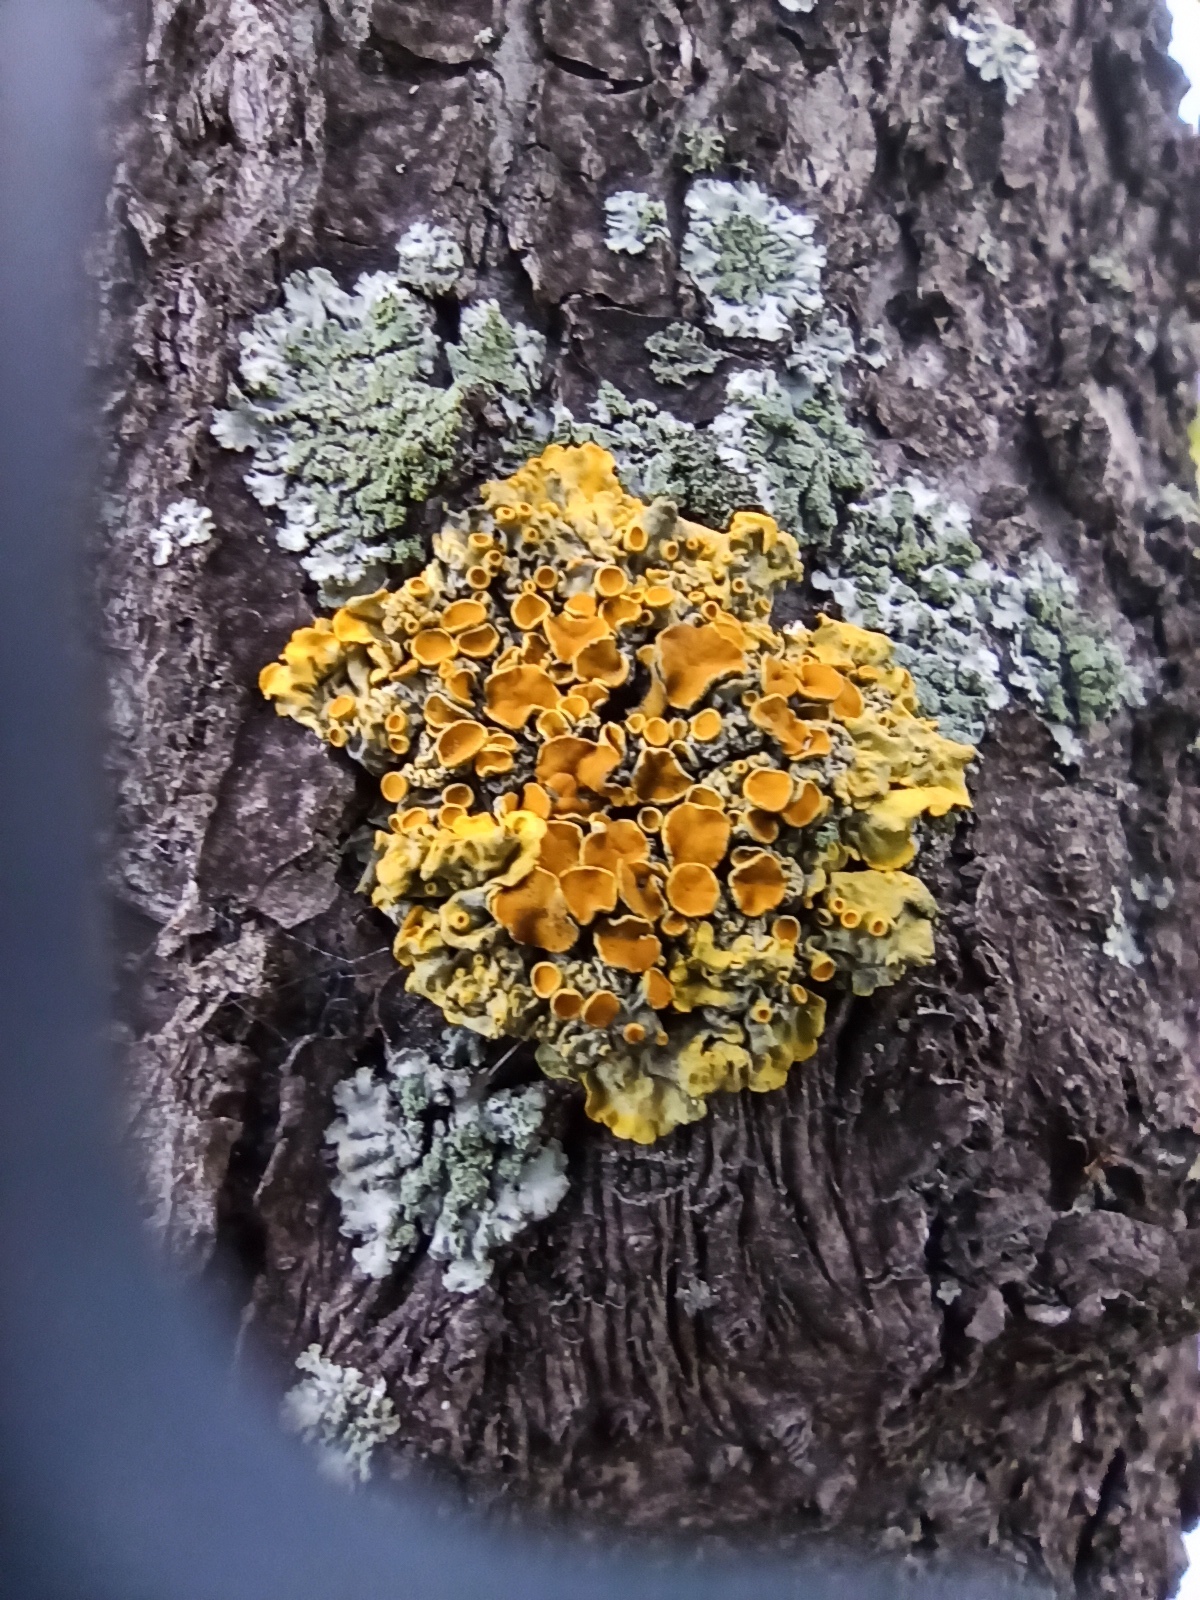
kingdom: Fungi
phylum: Ascomycota
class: Lecanoromycetes
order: Teloschistales
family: Teloschistaceae
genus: Xanthoria
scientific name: Xanthoria parietina
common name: Common orange lichen
